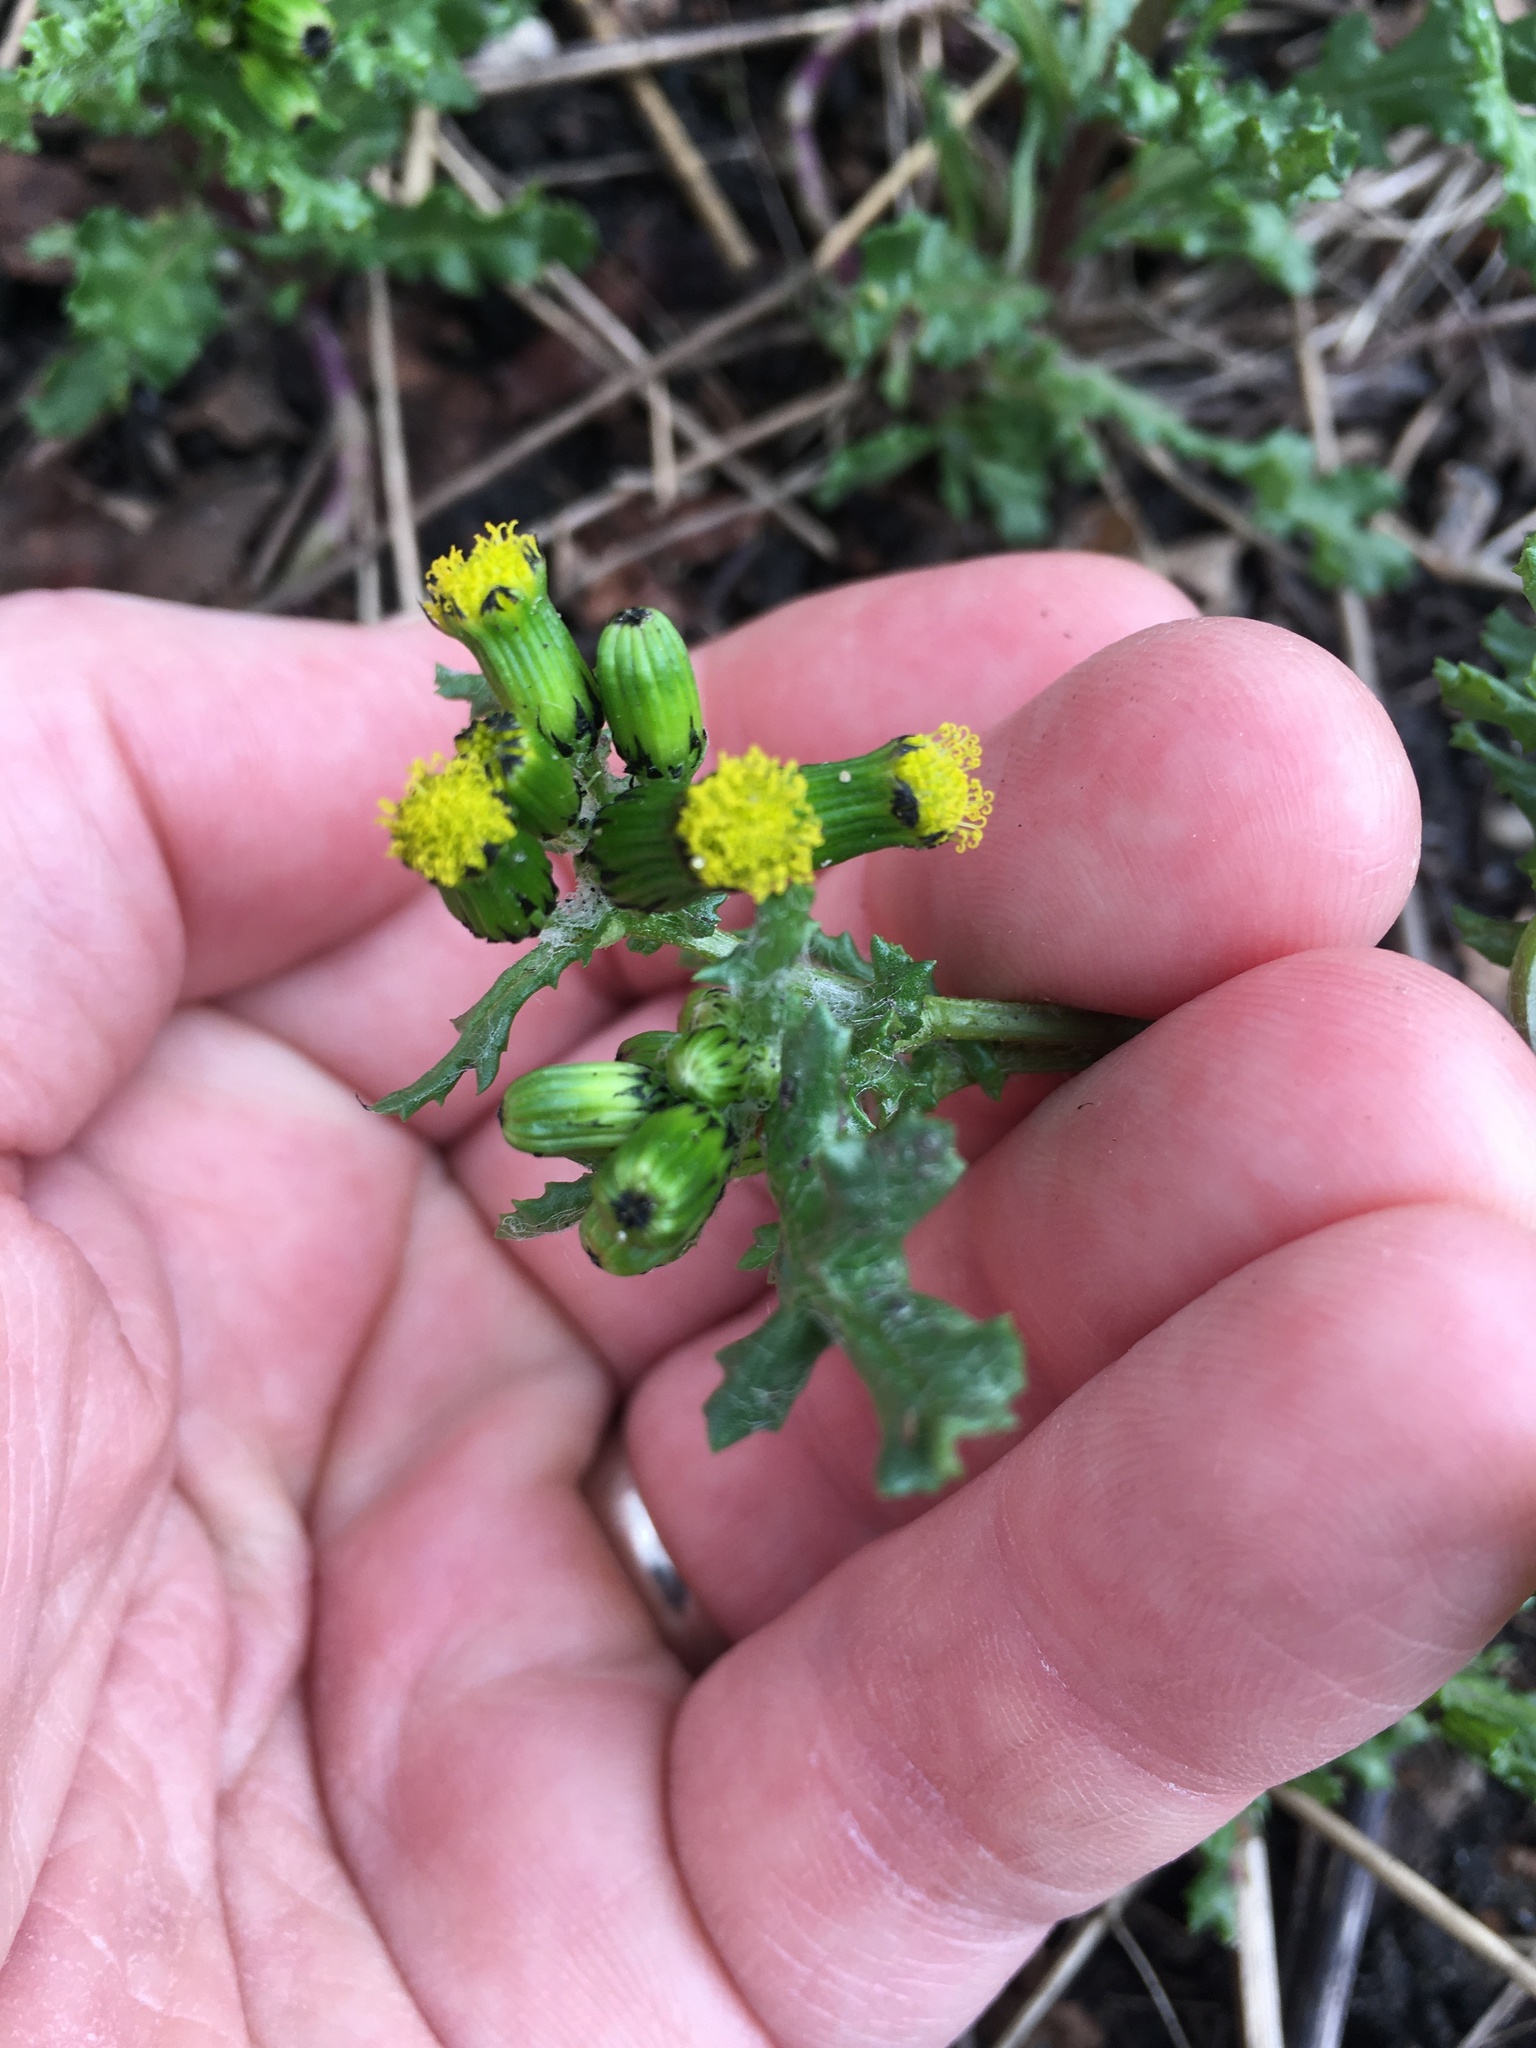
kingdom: Plantae
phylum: Tracheophyta
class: Magnoliopsida
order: Asterales
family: Asteraceae
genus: Senecio
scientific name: Senecio vulgaris
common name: Old-man-in-the-spring
